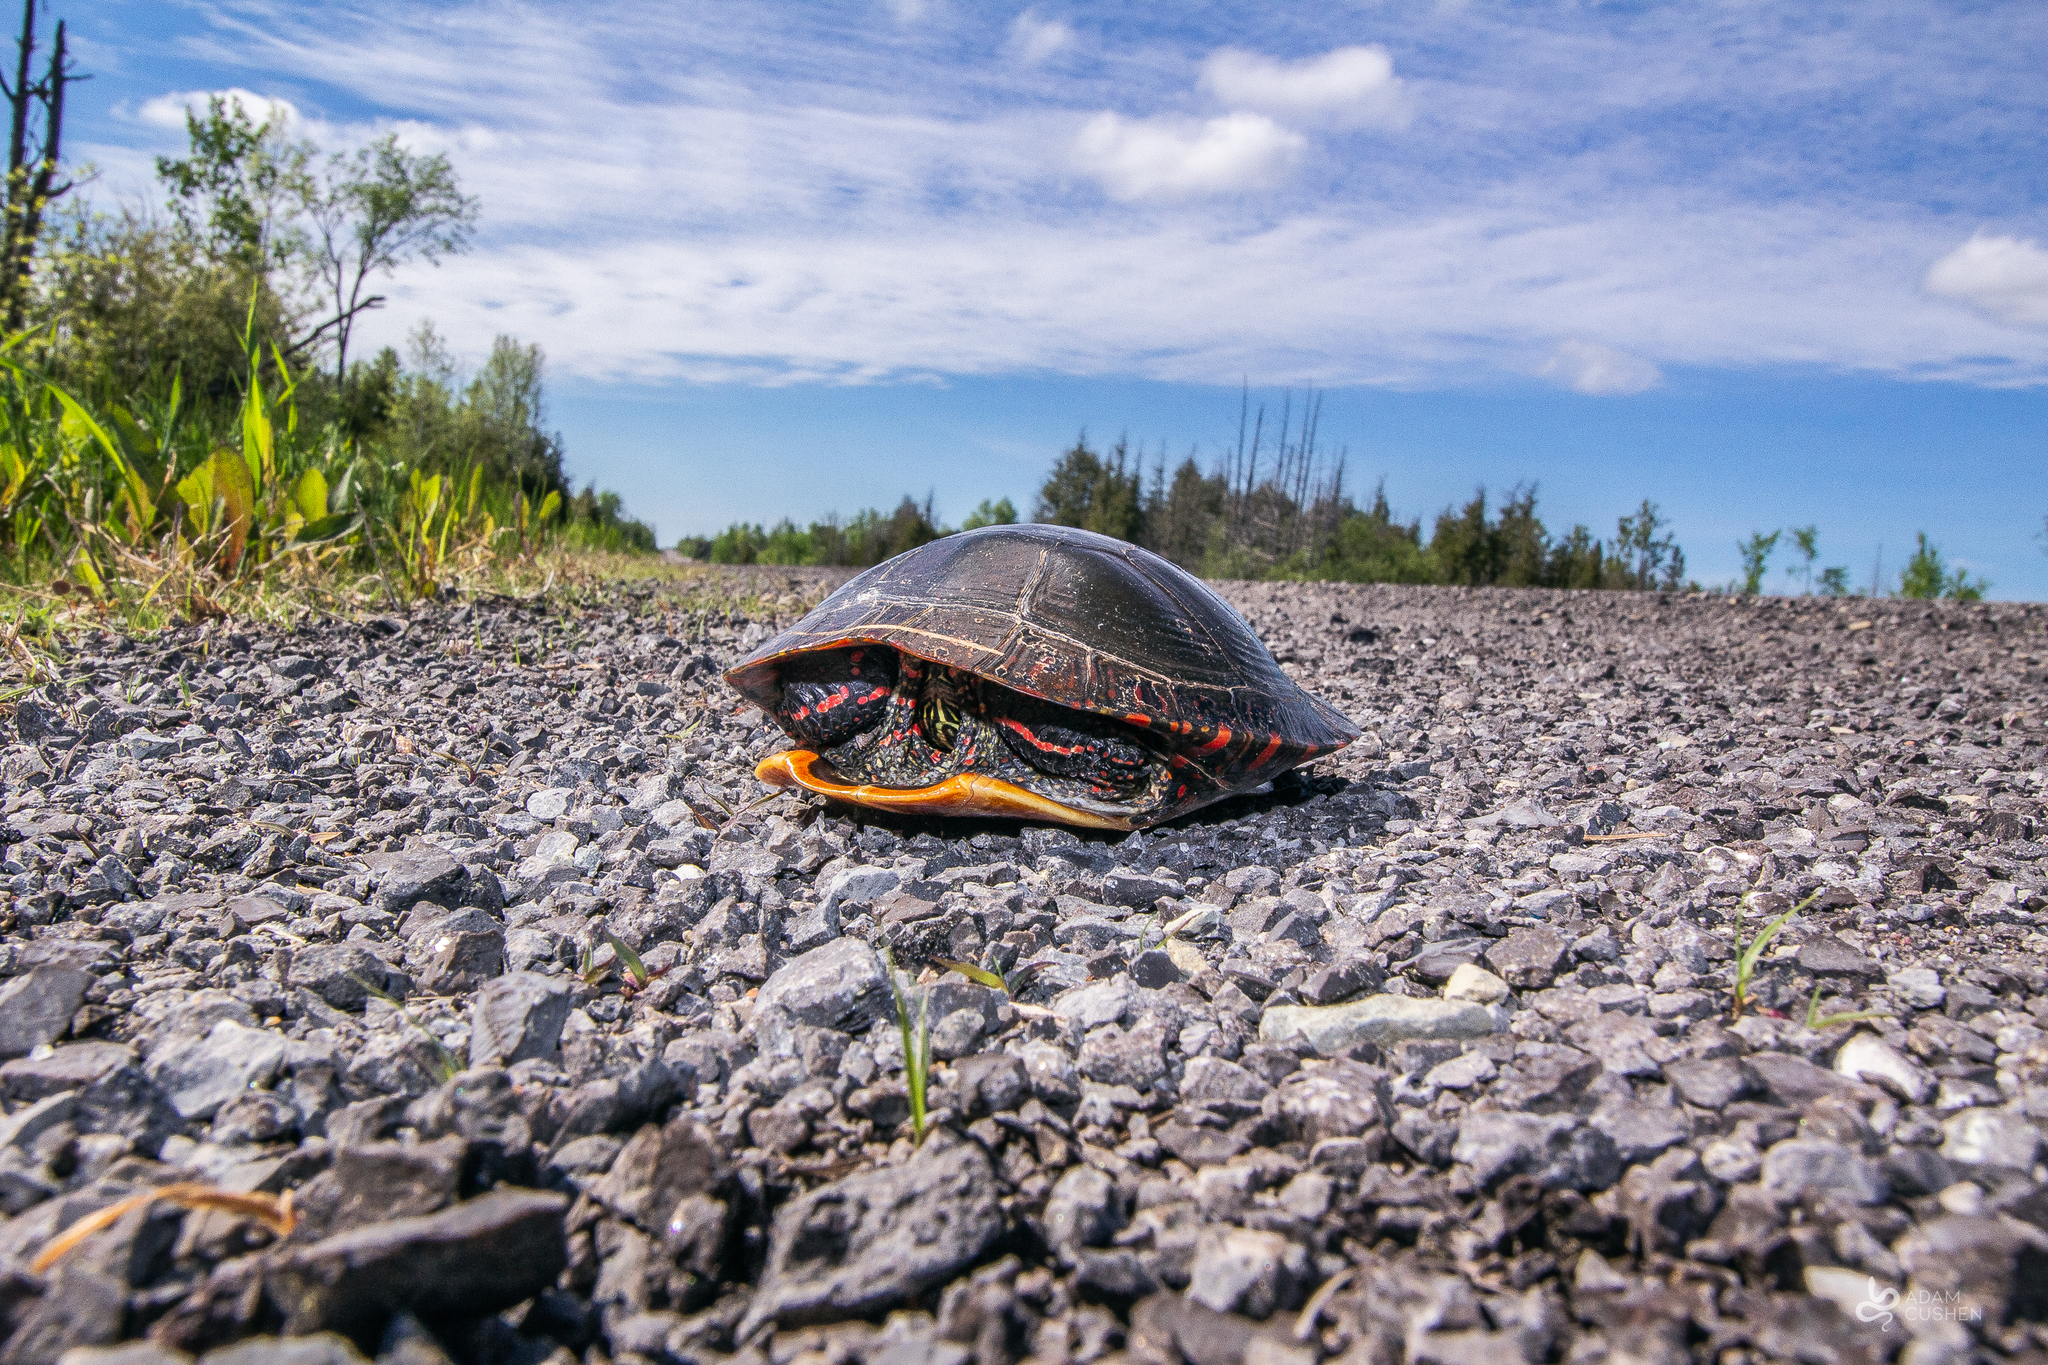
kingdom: Animalia
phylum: Chordata
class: Testudines
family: Emydidae
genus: Chrysemys
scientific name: Chrysemys picta
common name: Painted turtle
